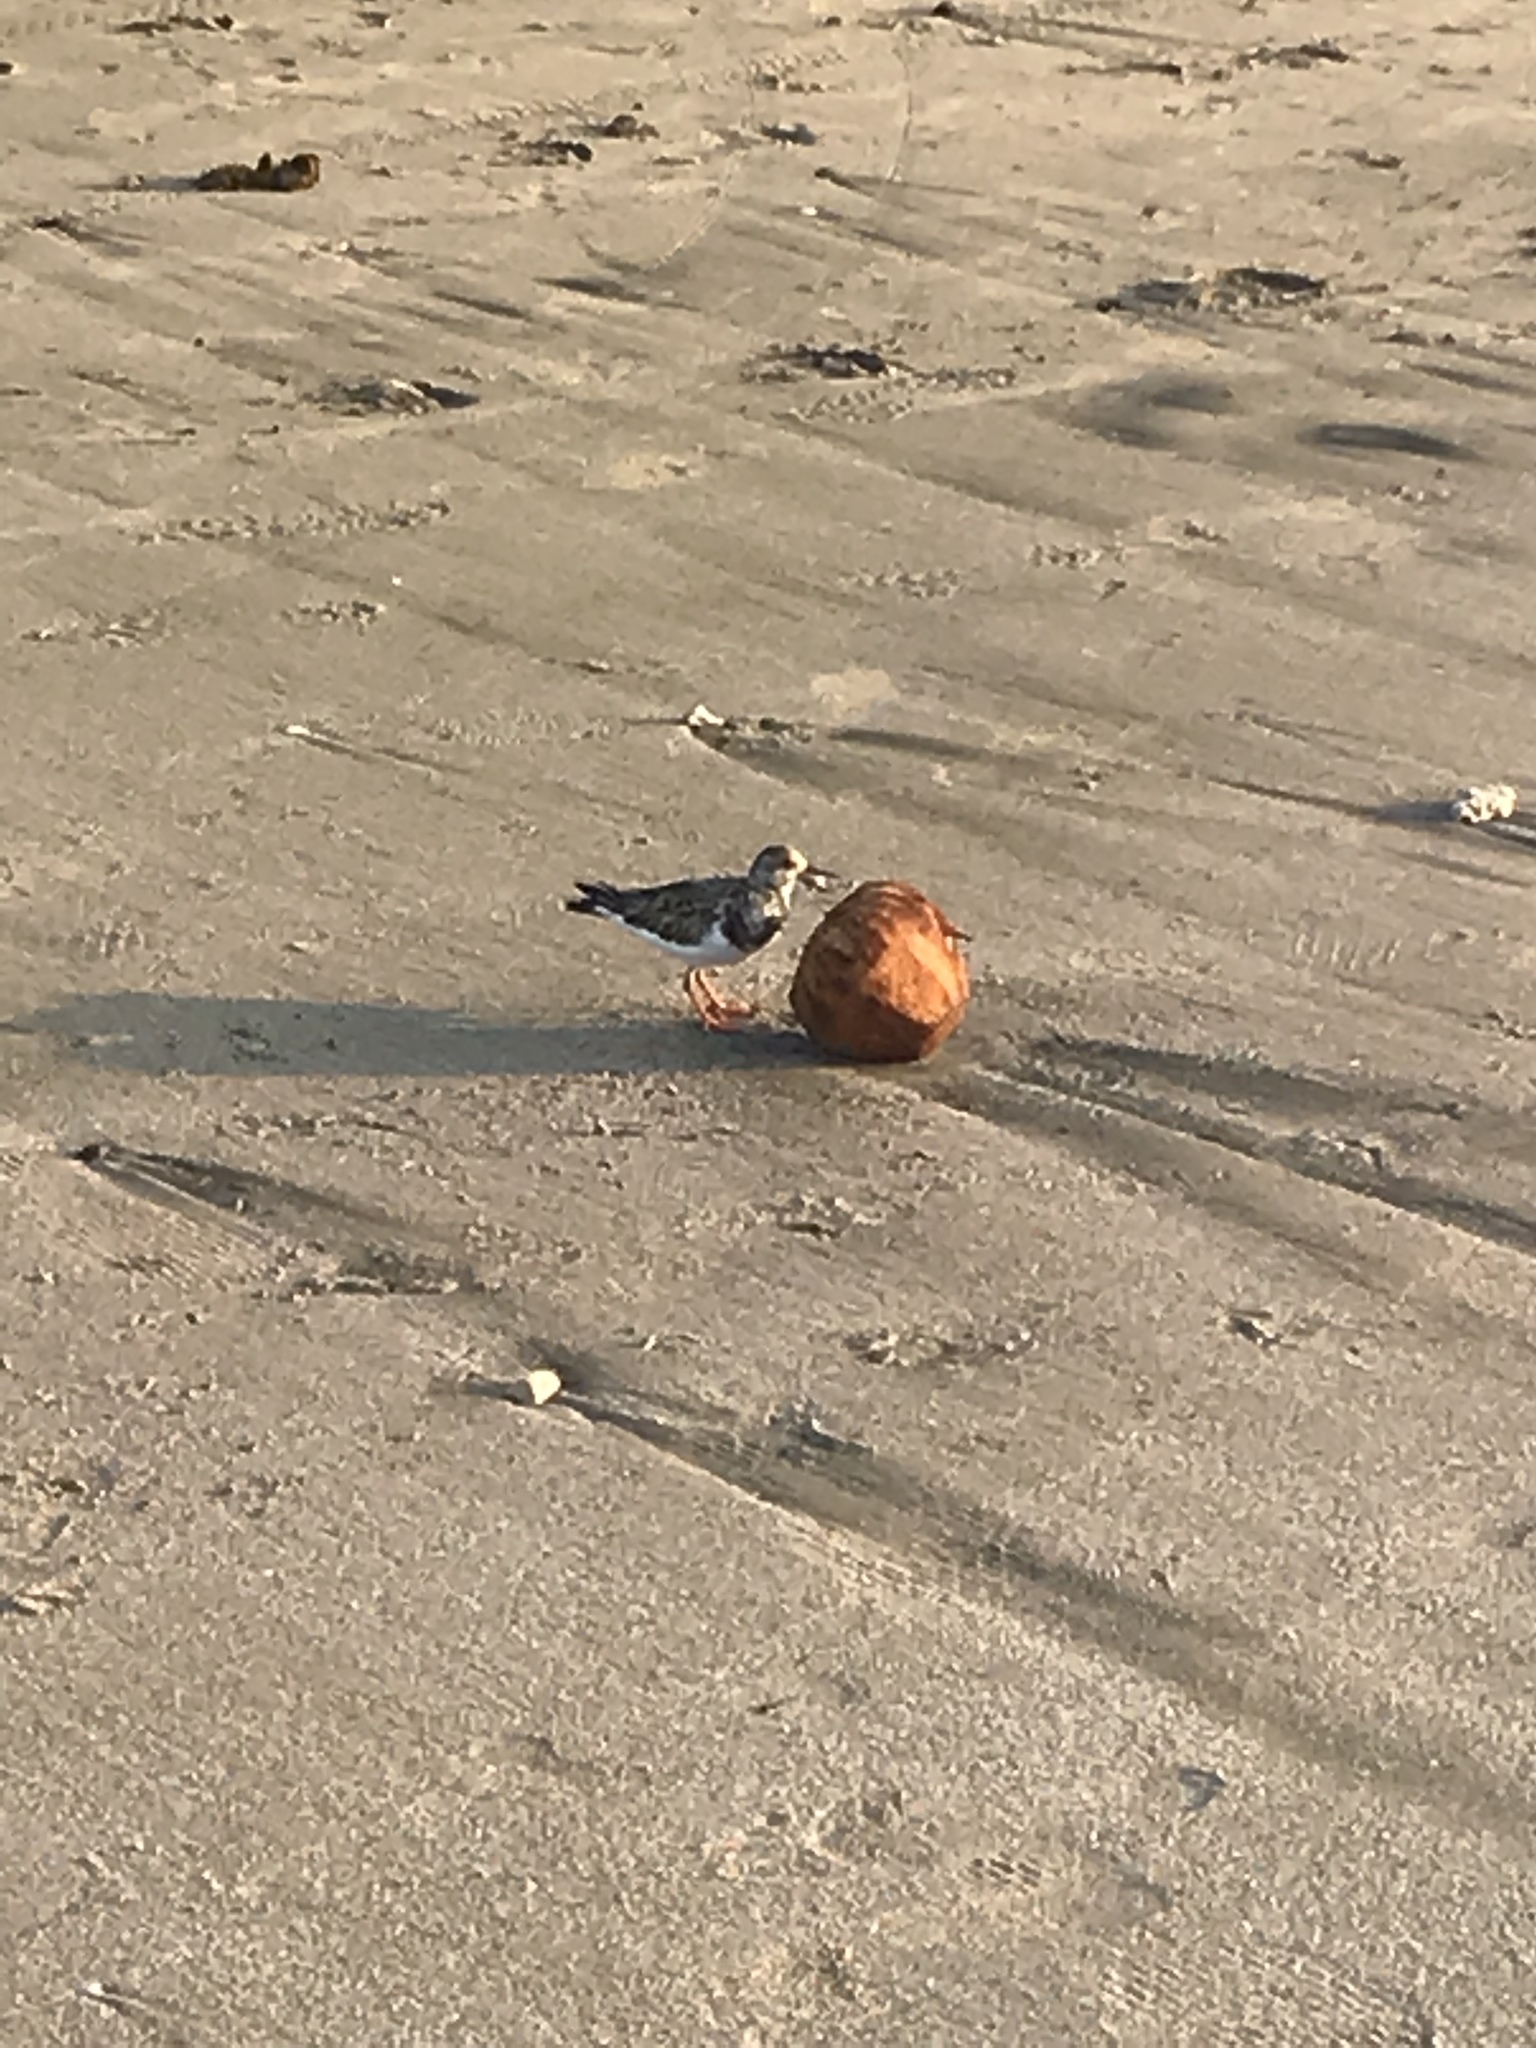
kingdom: Animalia
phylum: Chordata
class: Aves
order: Charadriiformes
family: Scolopacidae
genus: Arenaria
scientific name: Arenaria interpres
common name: Ruddy turnstone
